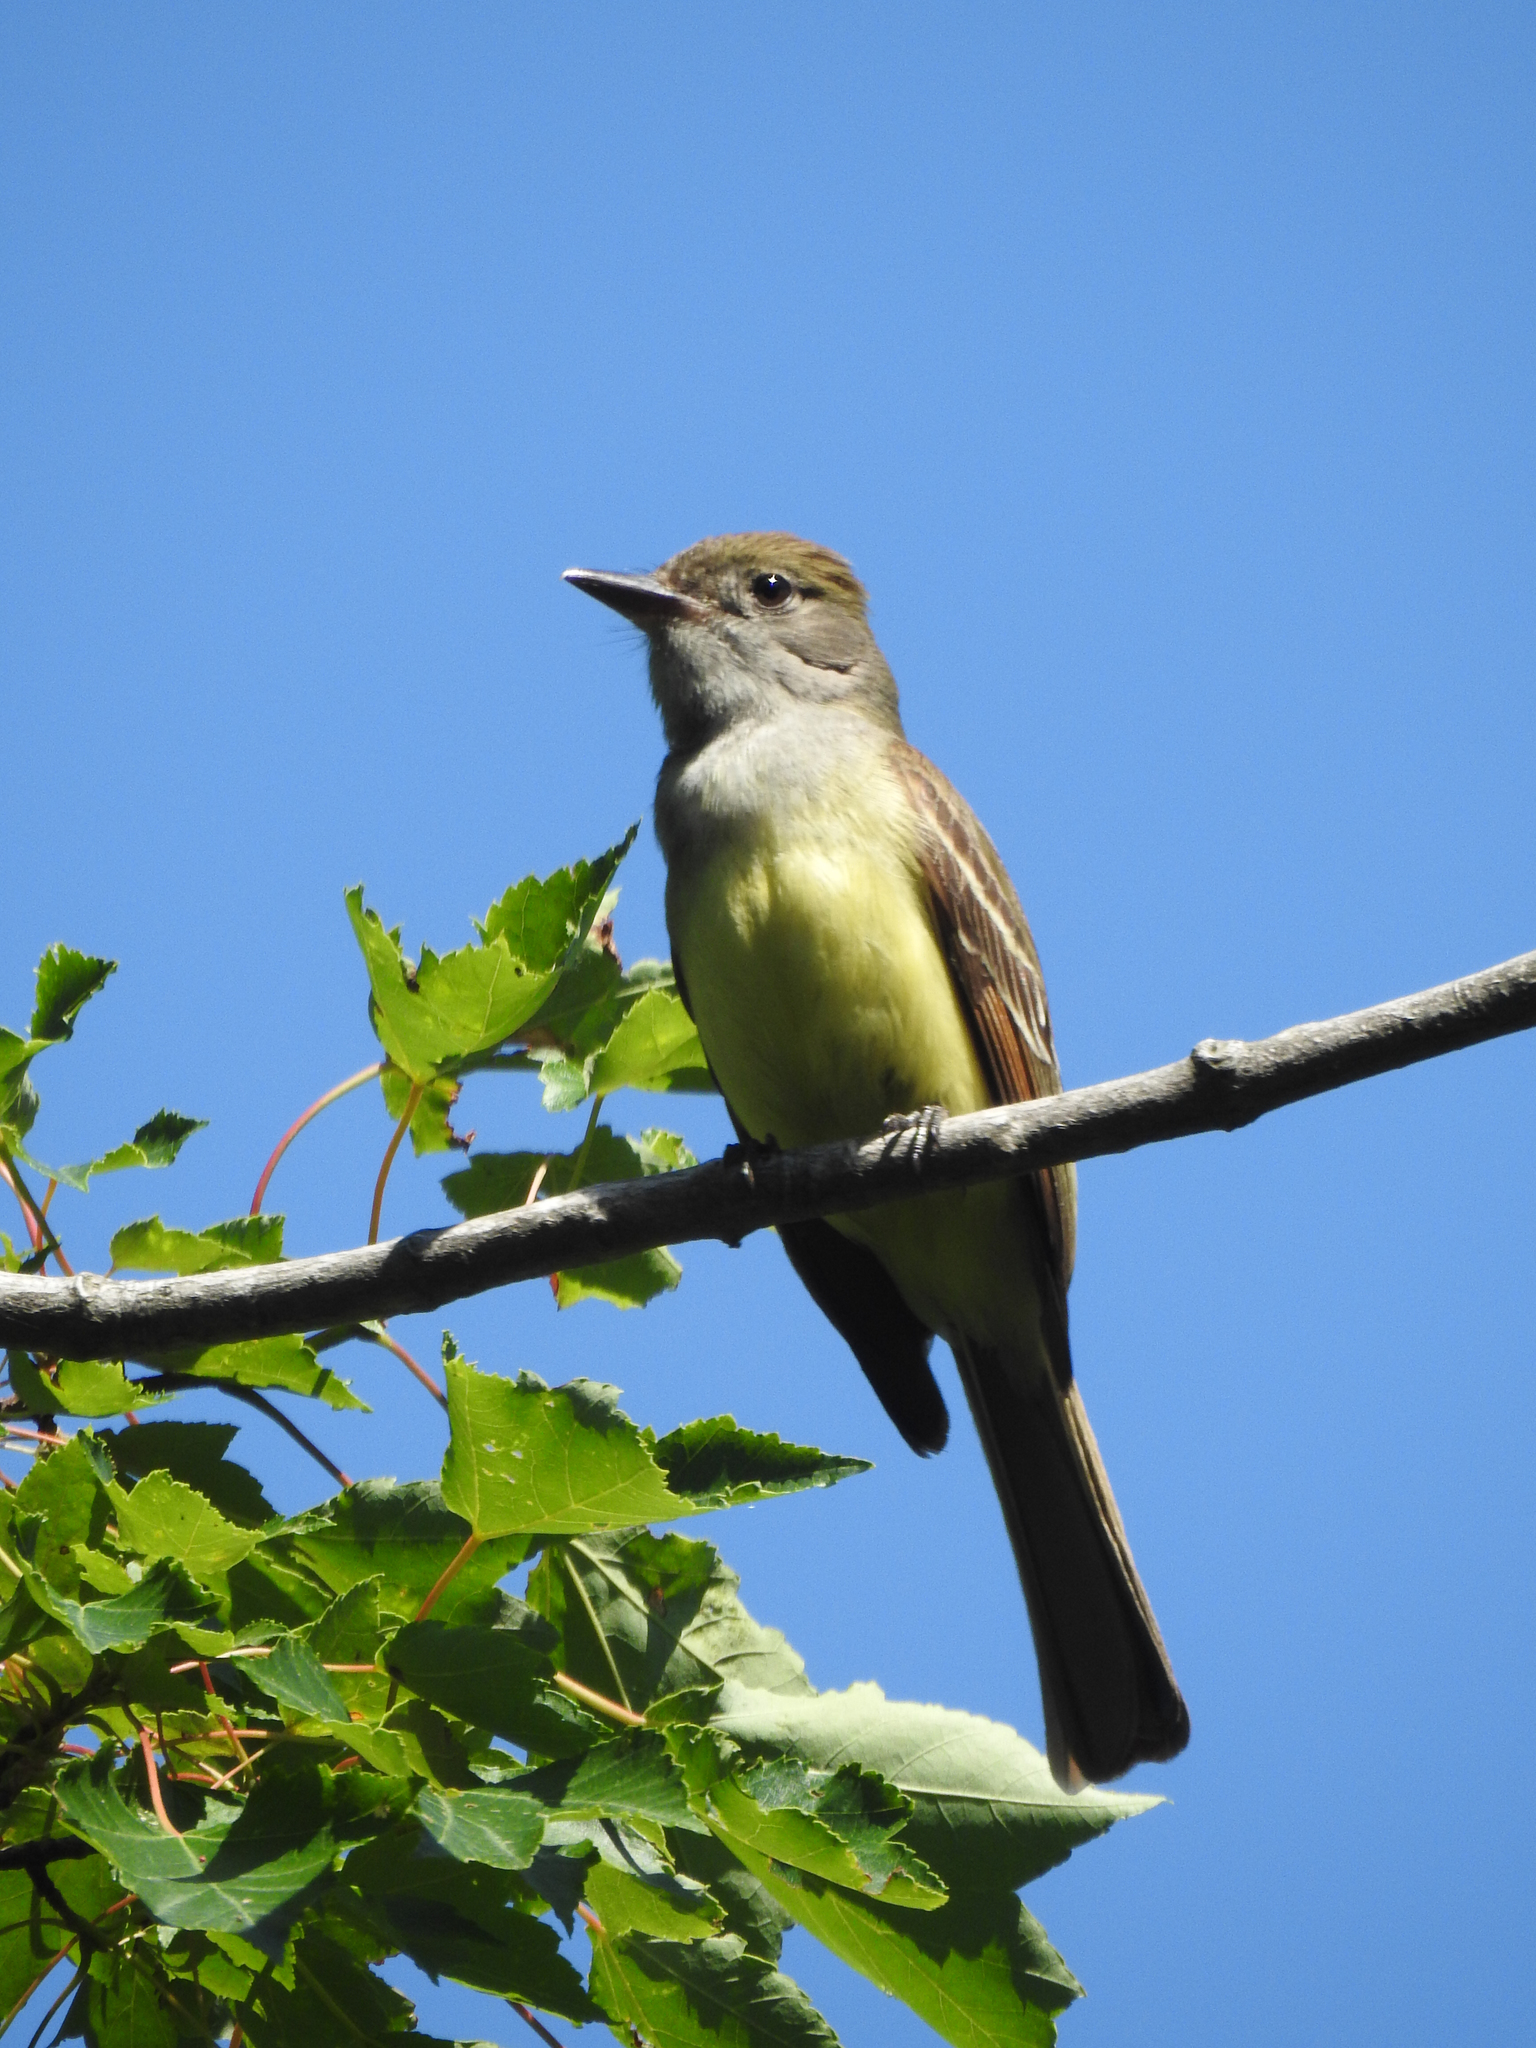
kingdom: Animalia
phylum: Chordata
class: Aves
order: Passeriformes
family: Tyrannidae
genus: Myiarchus
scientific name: Myiarchus crinitus
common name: Great crested flycatcher
